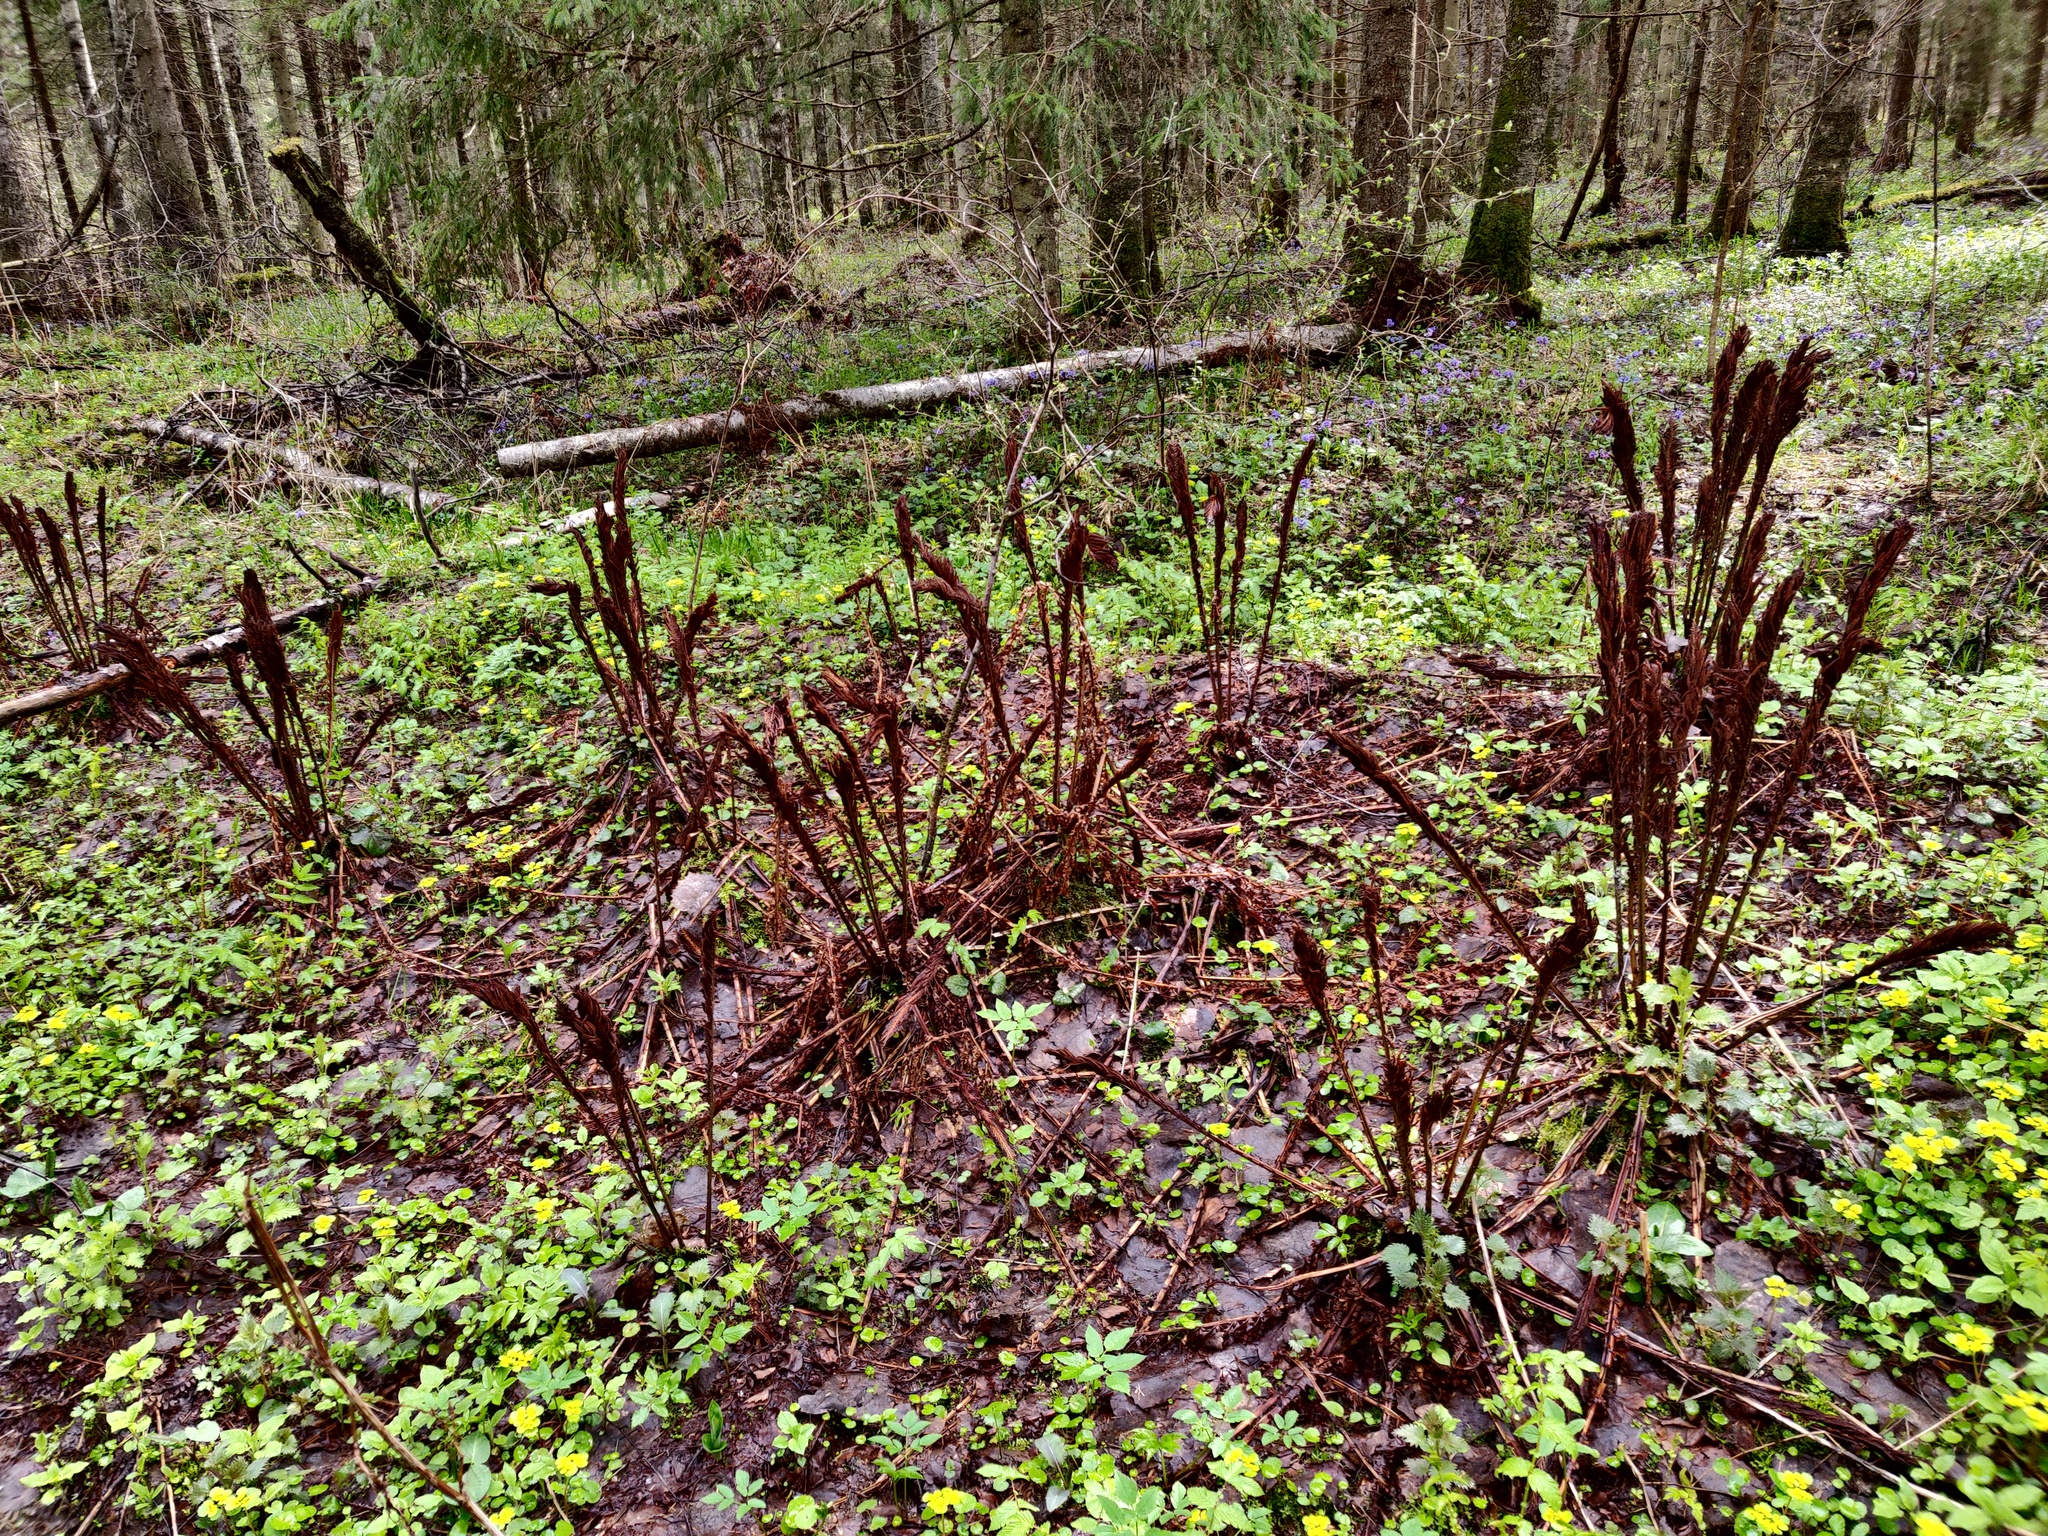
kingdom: Plantae
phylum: Tracheophyta
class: Polypodiopsida
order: Polypodiales
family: Onocleaceae
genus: Matteuccia
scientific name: Matteuccia struthiopteris
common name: Ostrich fern
